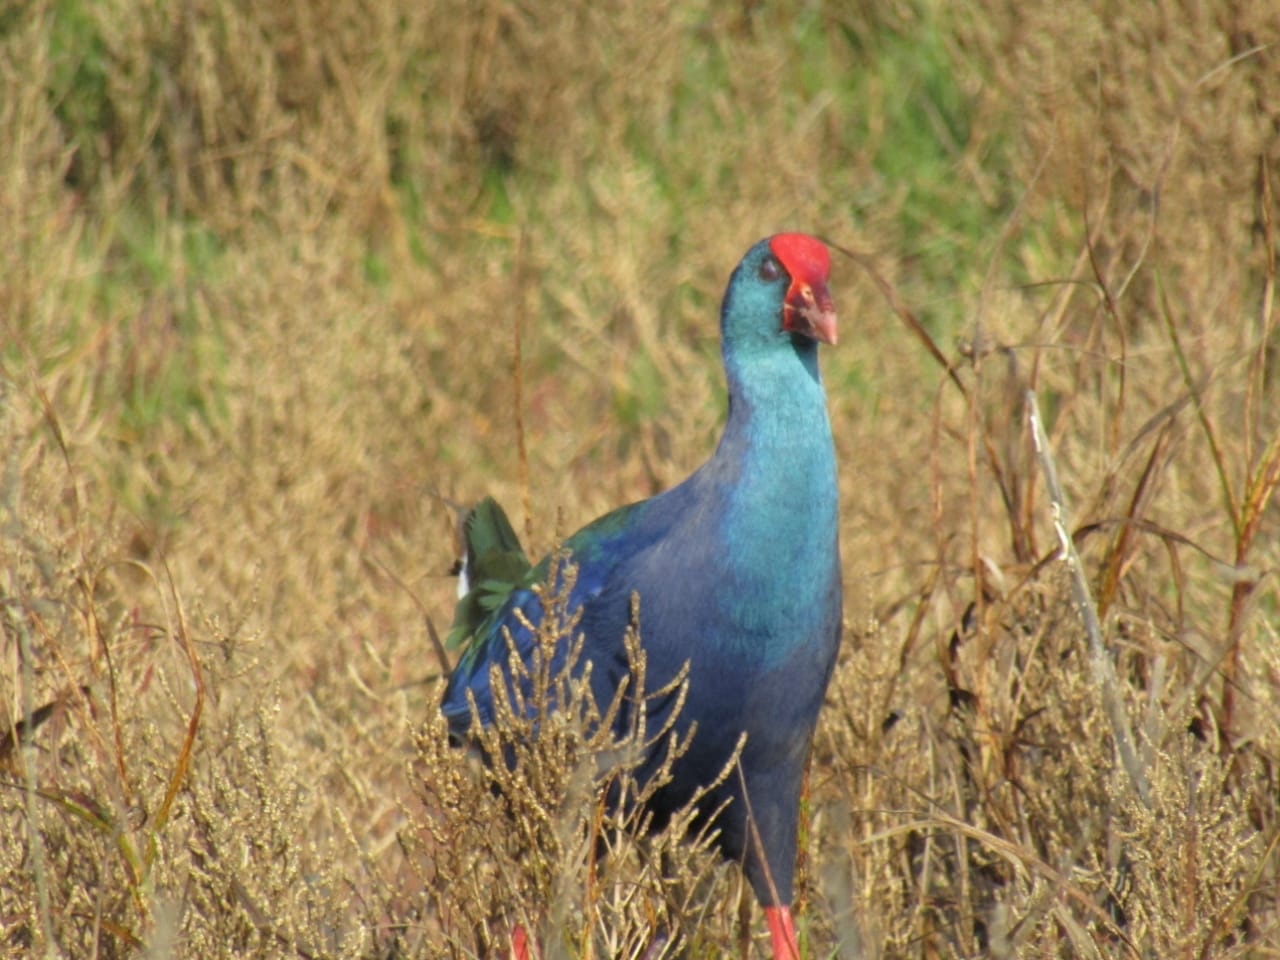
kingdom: Animalia
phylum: Chordata
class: Aves
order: Gruiformes
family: Rallidae
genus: Porphyrio
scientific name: Porphyrio porphyrio
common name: Purple swamphen
